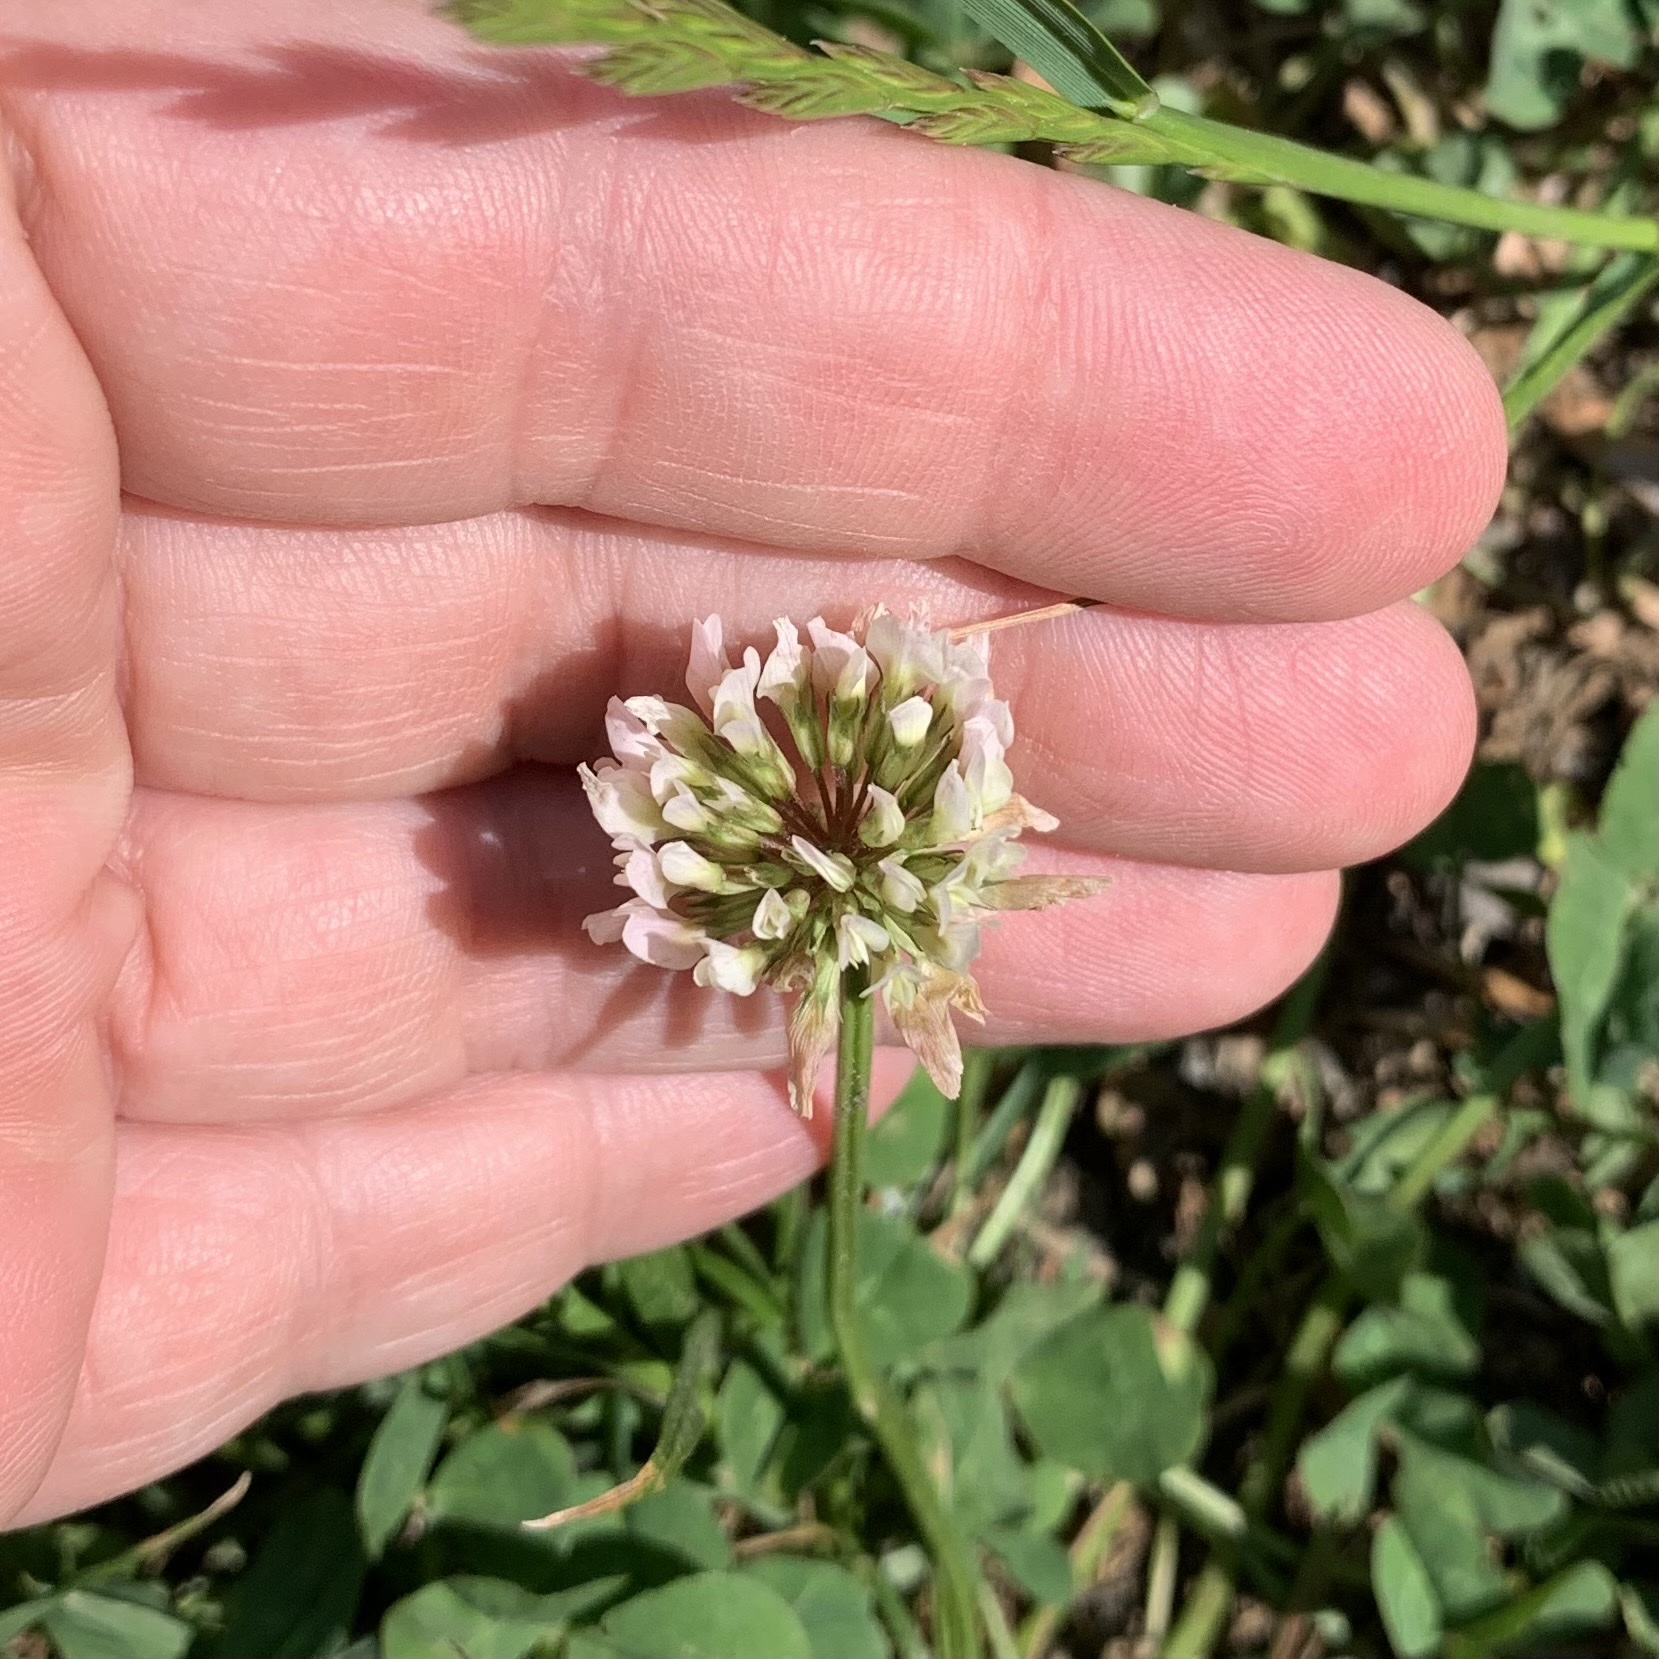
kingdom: Plantae
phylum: Tracheophyta
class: Magnoliopsida
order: Fabales
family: Fabaceae
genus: Trifolium
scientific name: Trifolium repens
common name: White clover
